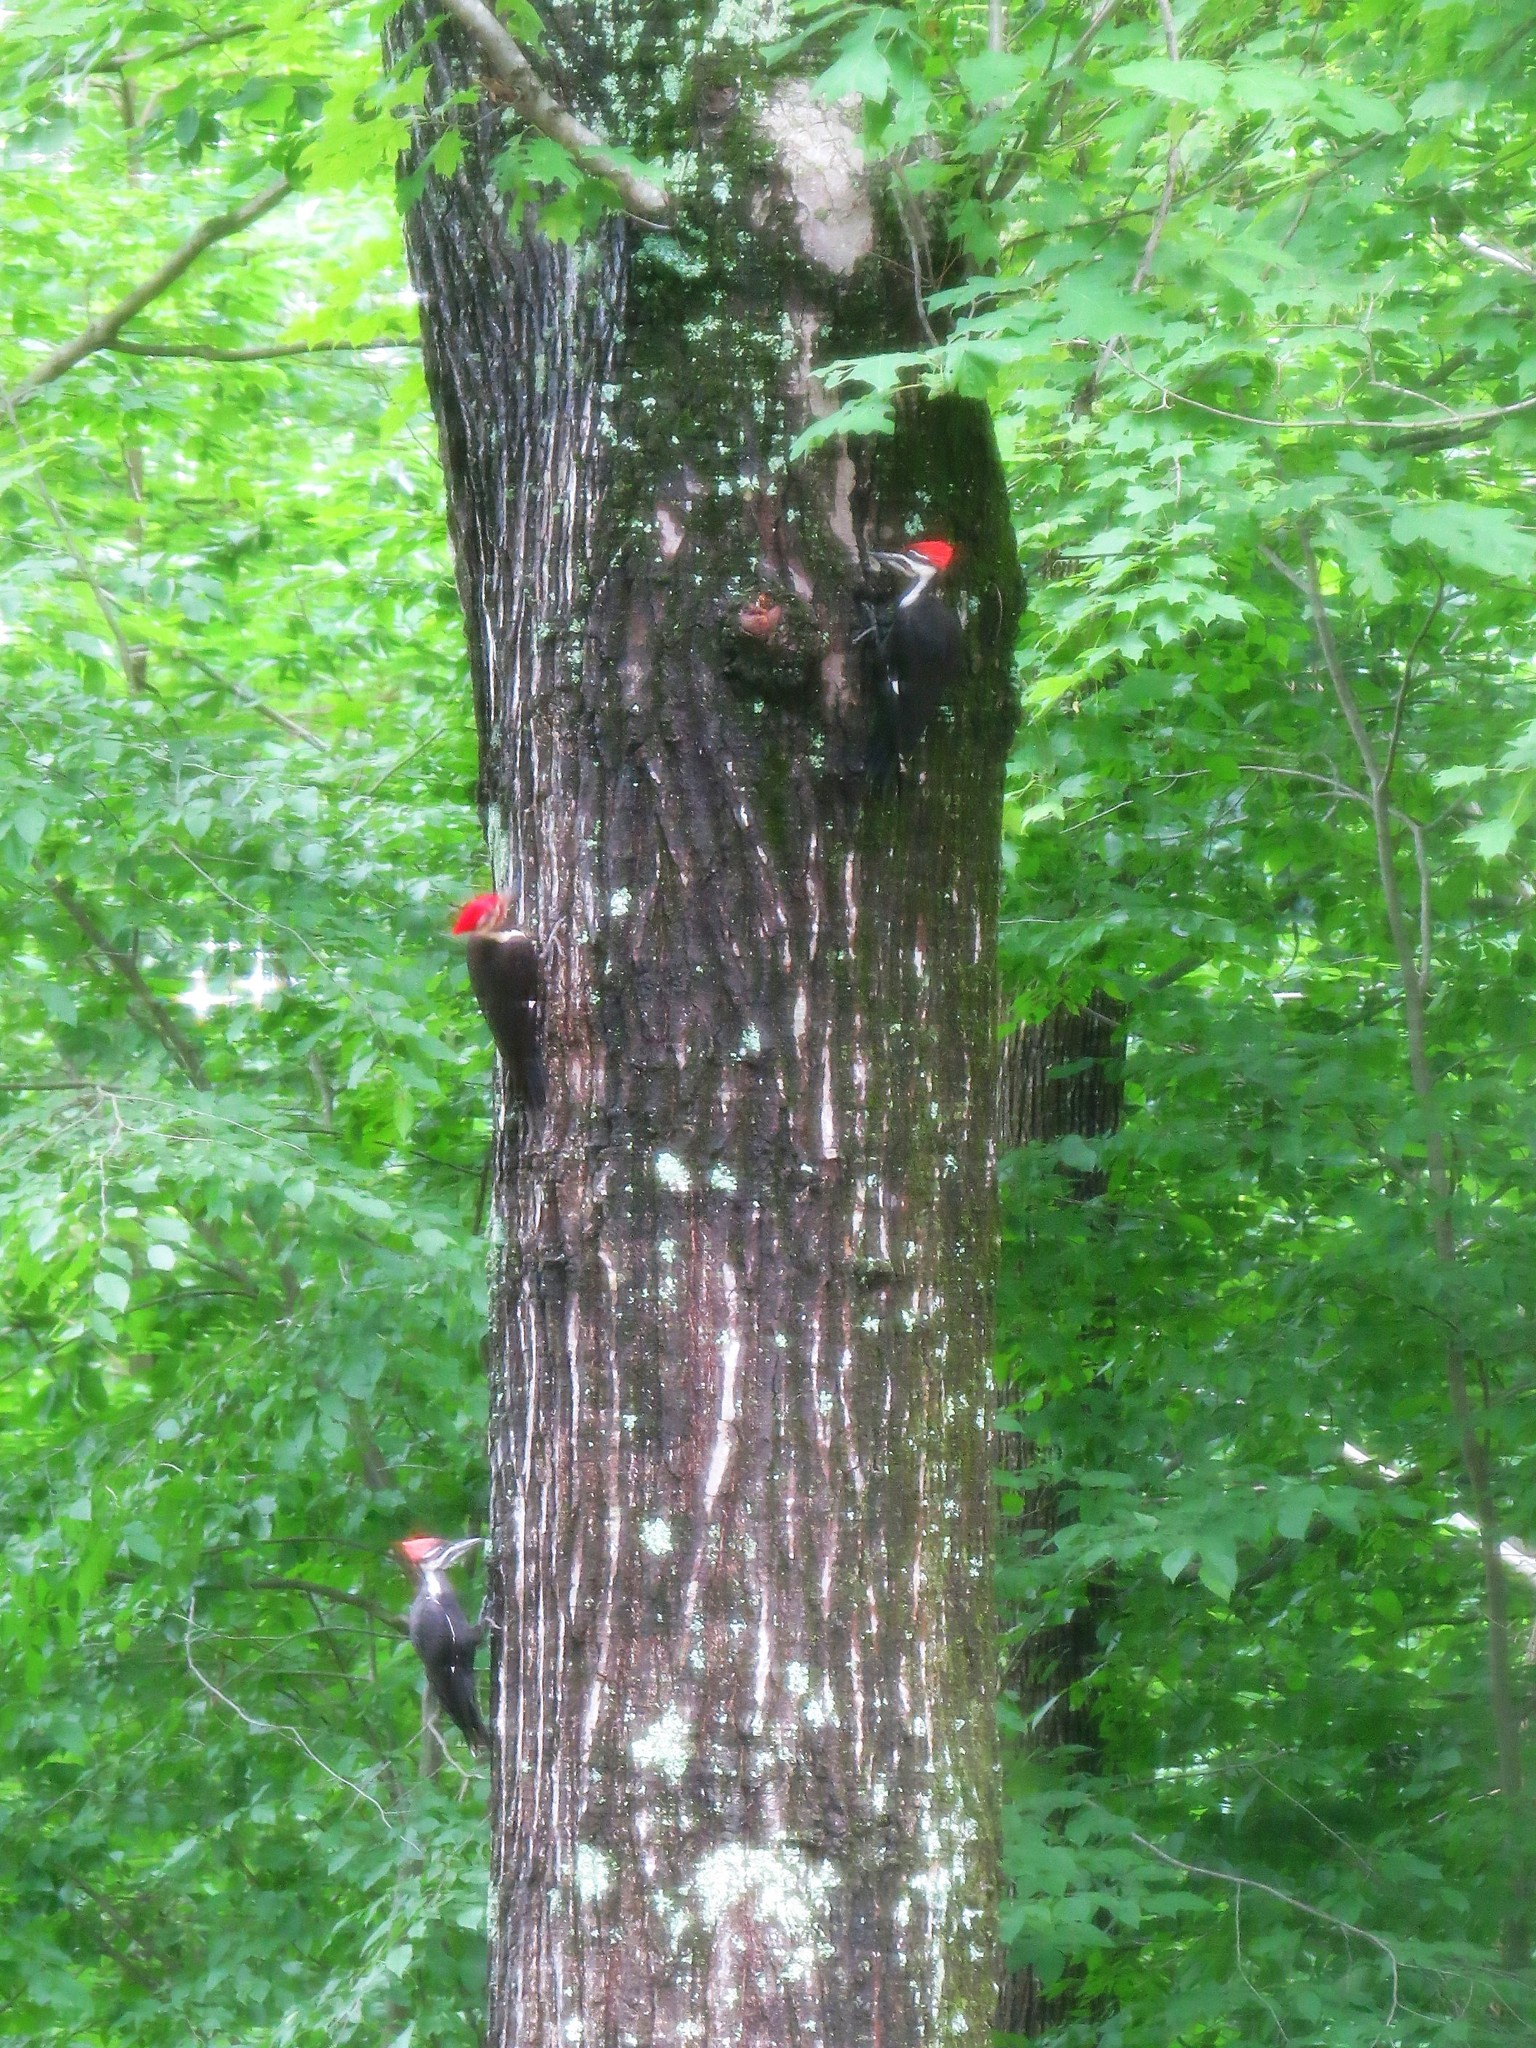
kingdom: Animalia
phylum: Chordata
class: Aves
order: Piciformes
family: Picidae
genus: Dryocopus
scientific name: Dryocopus pileatus
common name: Pileated woodpecker
